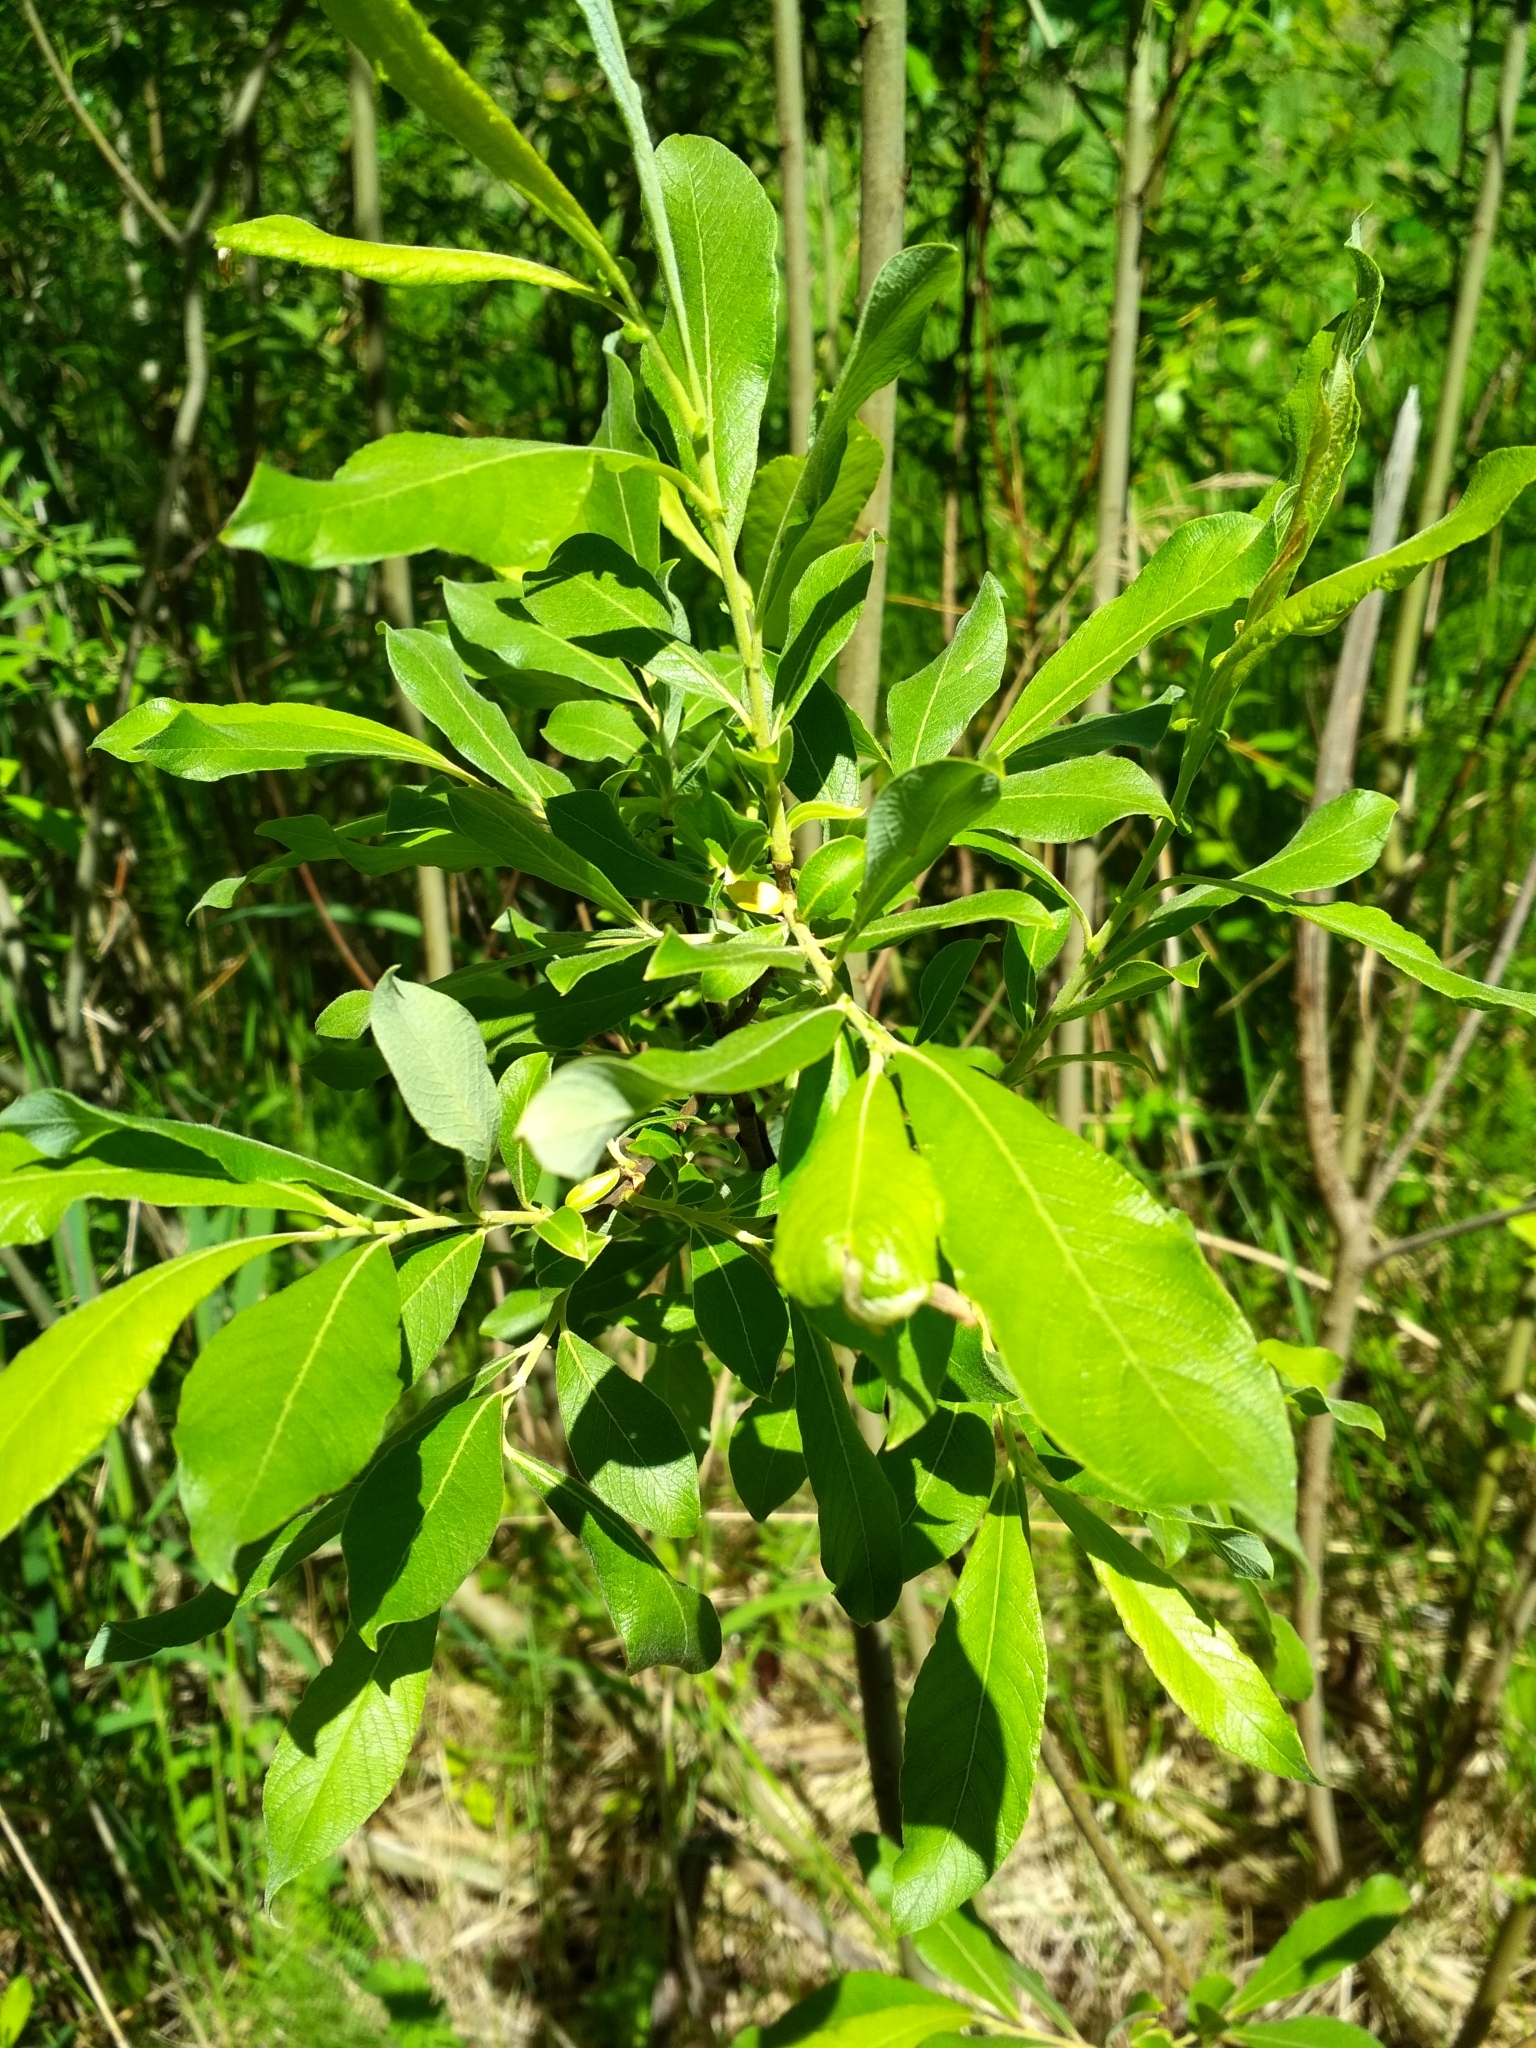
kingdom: Plantae
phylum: Tracheophyta
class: Magnoliopsida
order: Malpighiales
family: Salicaceae
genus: Salix
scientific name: Salix cinerea
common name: Common sallow
